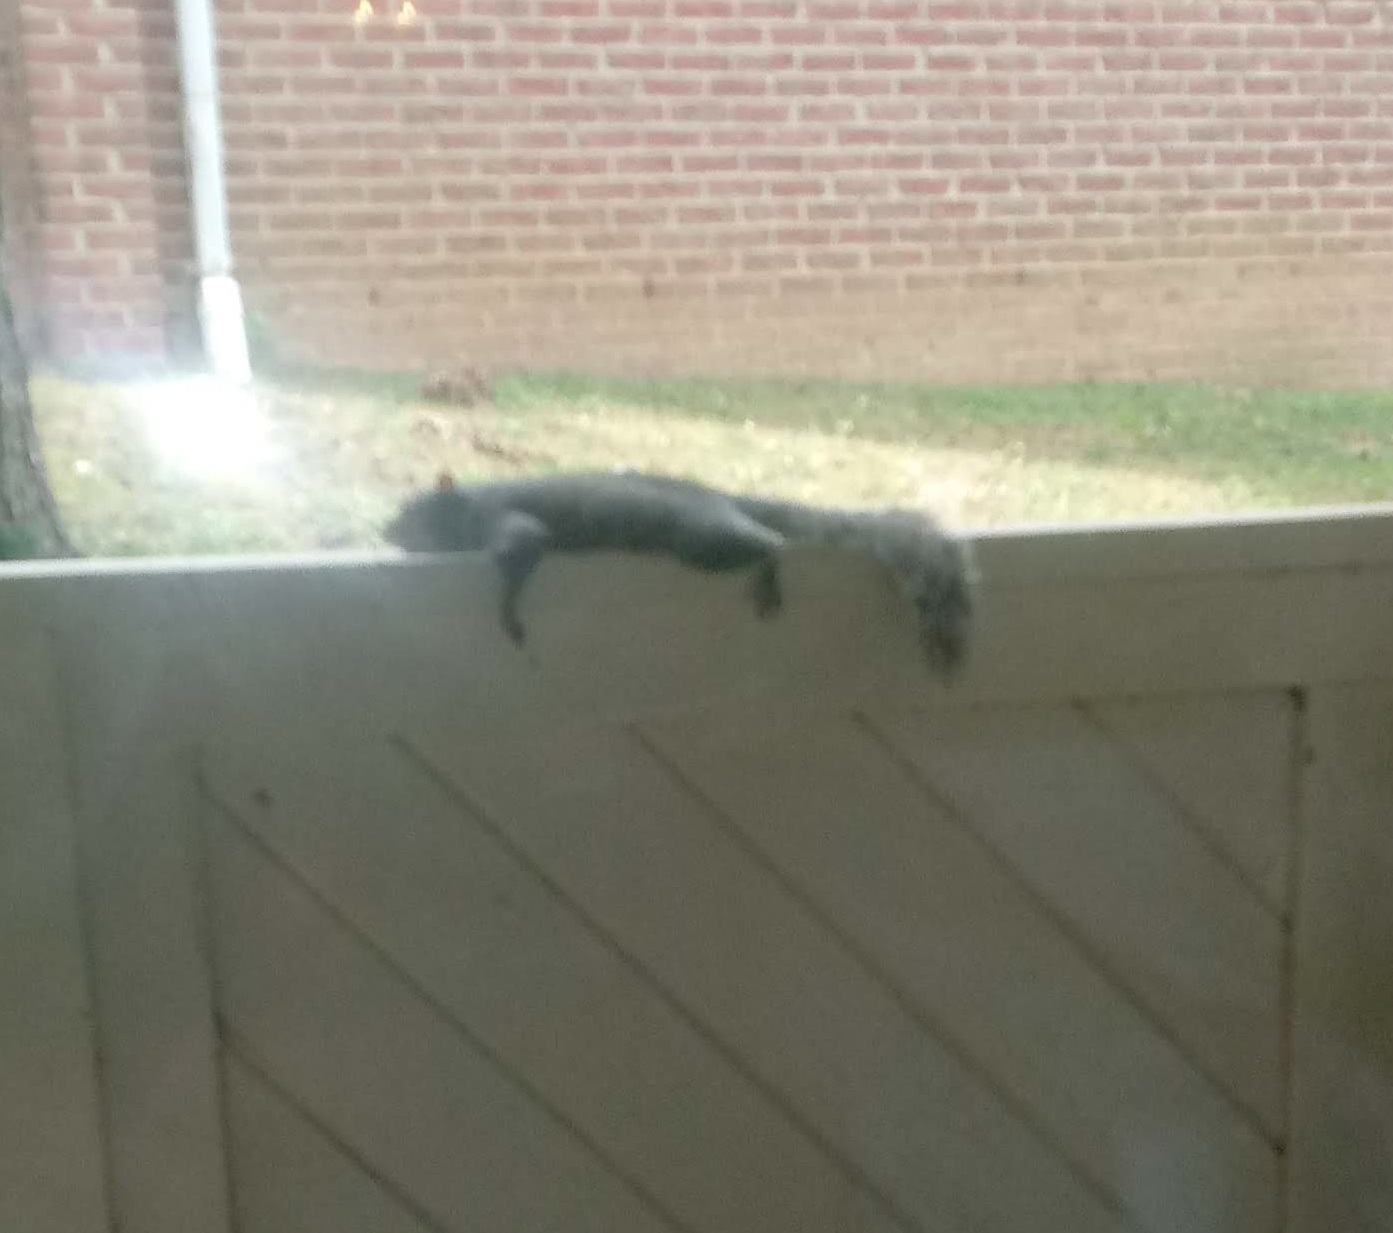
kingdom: Animalia
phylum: Chordata
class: Mammalia
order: Rodentia
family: Sciuridae
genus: Sciurus
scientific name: Sciurus carolinensis
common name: Eastern gray squirrel
